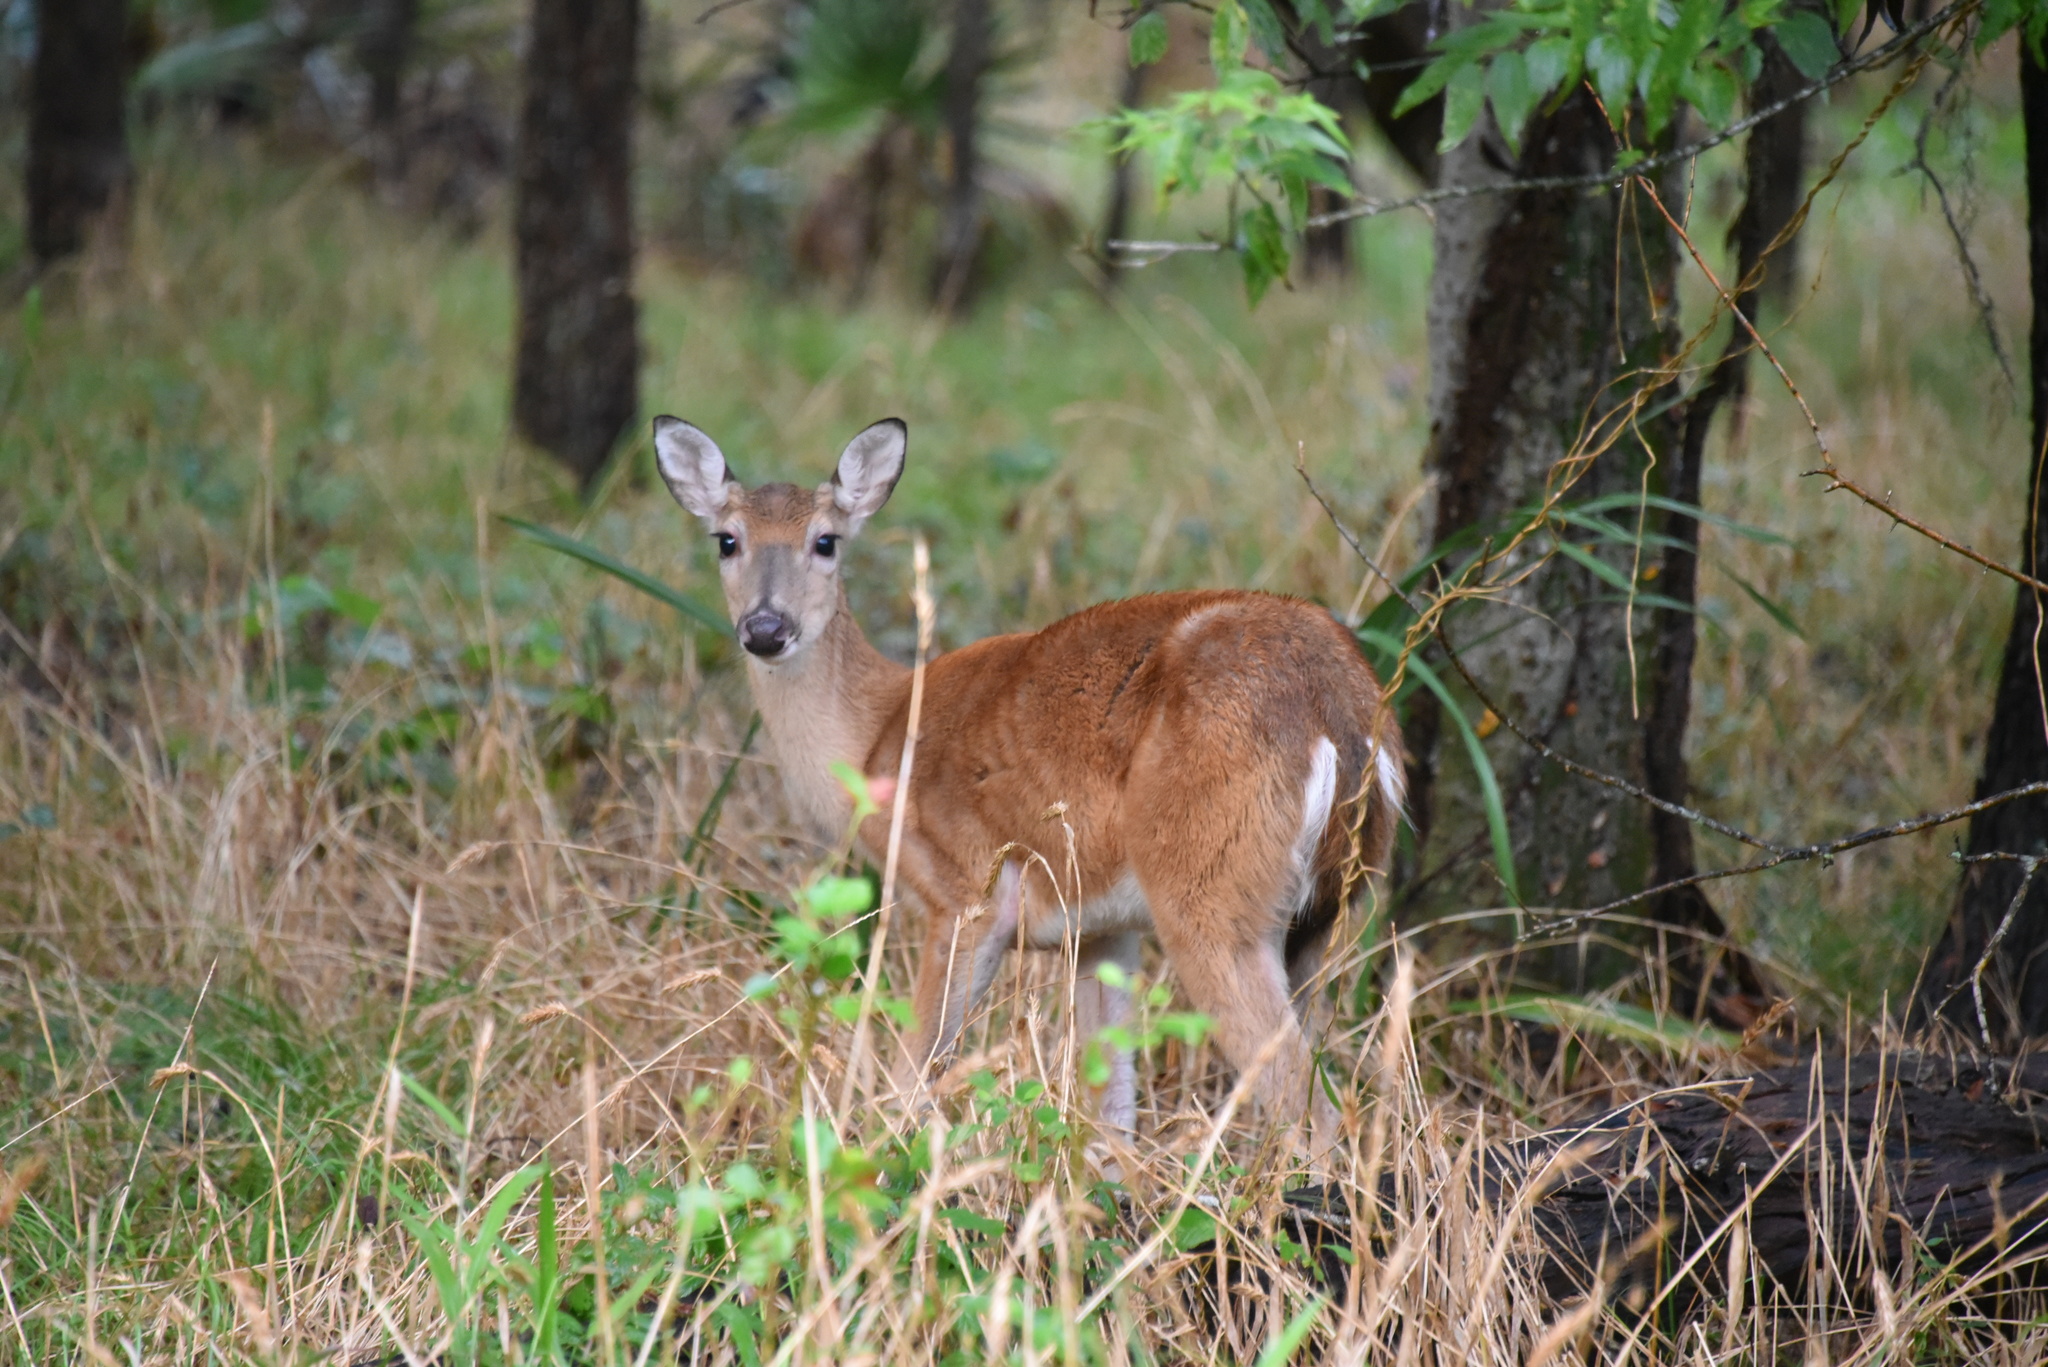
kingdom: Animalia
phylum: Chordata
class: Mammalia
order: Artiodactyla
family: Cervidae
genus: Odocoileus
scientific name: Odocoileus virginianus
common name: White-tailed deer
